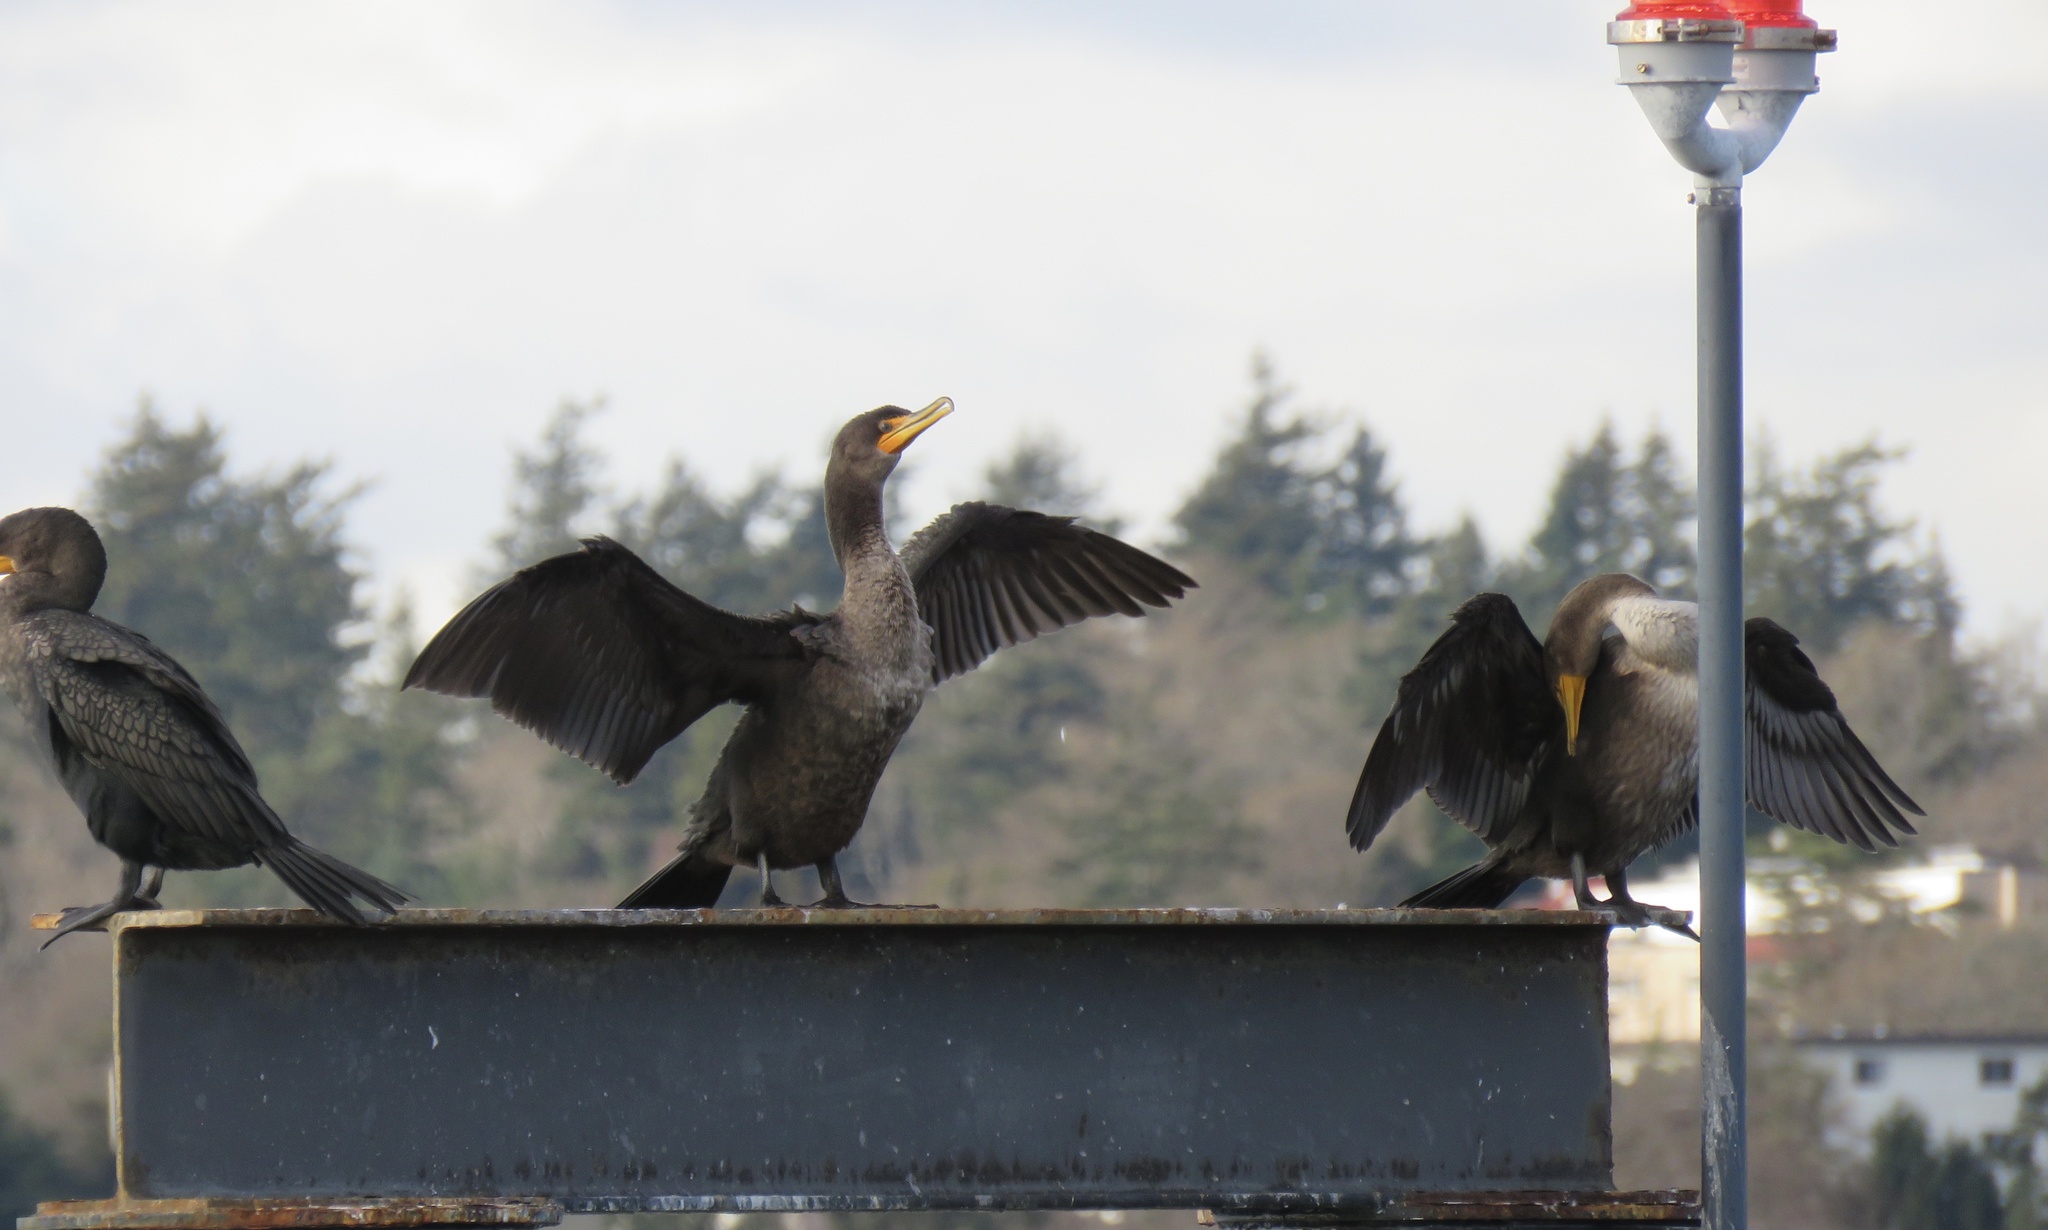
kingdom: Animalia
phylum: Chordata
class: Aves
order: Suliformes
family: Phalacrocoracidae
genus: Phalacrocorax
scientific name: Phalacrocorax auritus
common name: Double-crested cormorant
